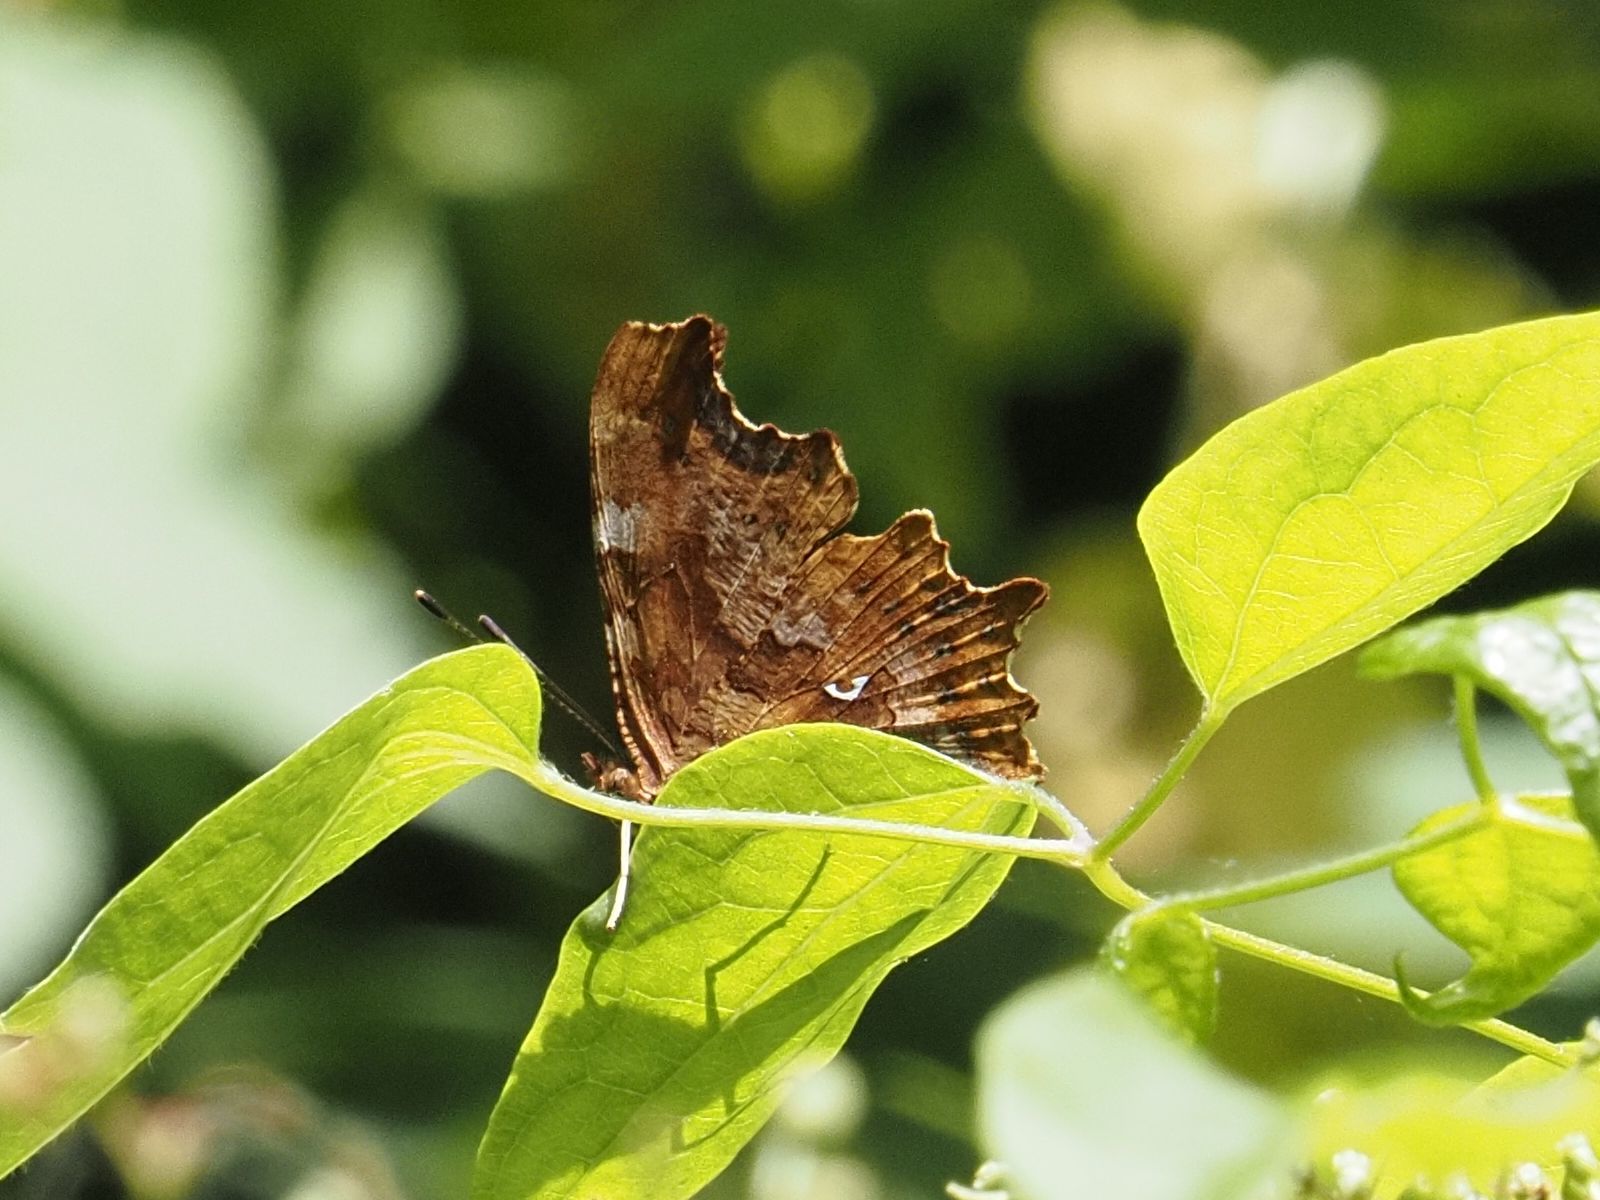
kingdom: Animalia
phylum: Arthropoda
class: Insecta
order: Lepidoptera
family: Nymphalidae
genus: Polygonia
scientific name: Polygonia c-album
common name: Comma
